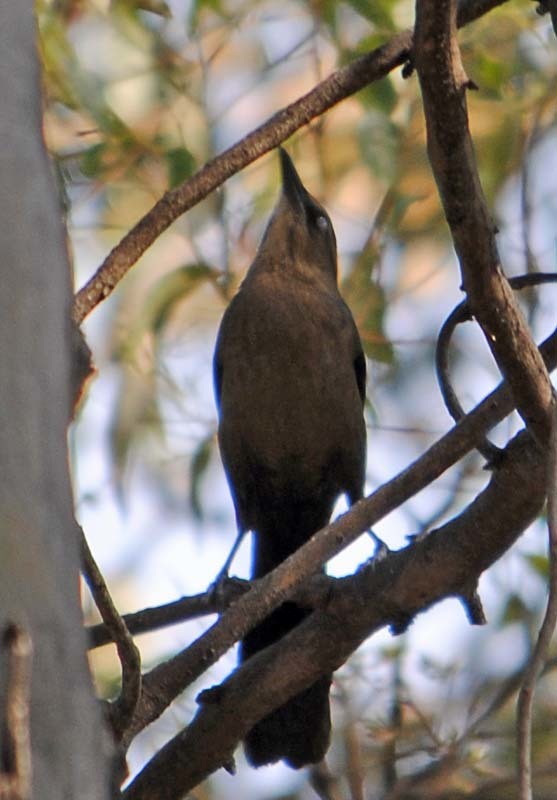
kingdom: Animalia
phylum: Chordata
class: Aves
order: Passeriformes
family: Icteridae
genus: Quiscalus
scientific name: Quiscalus mexicanus
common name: Great-tailed grackle
